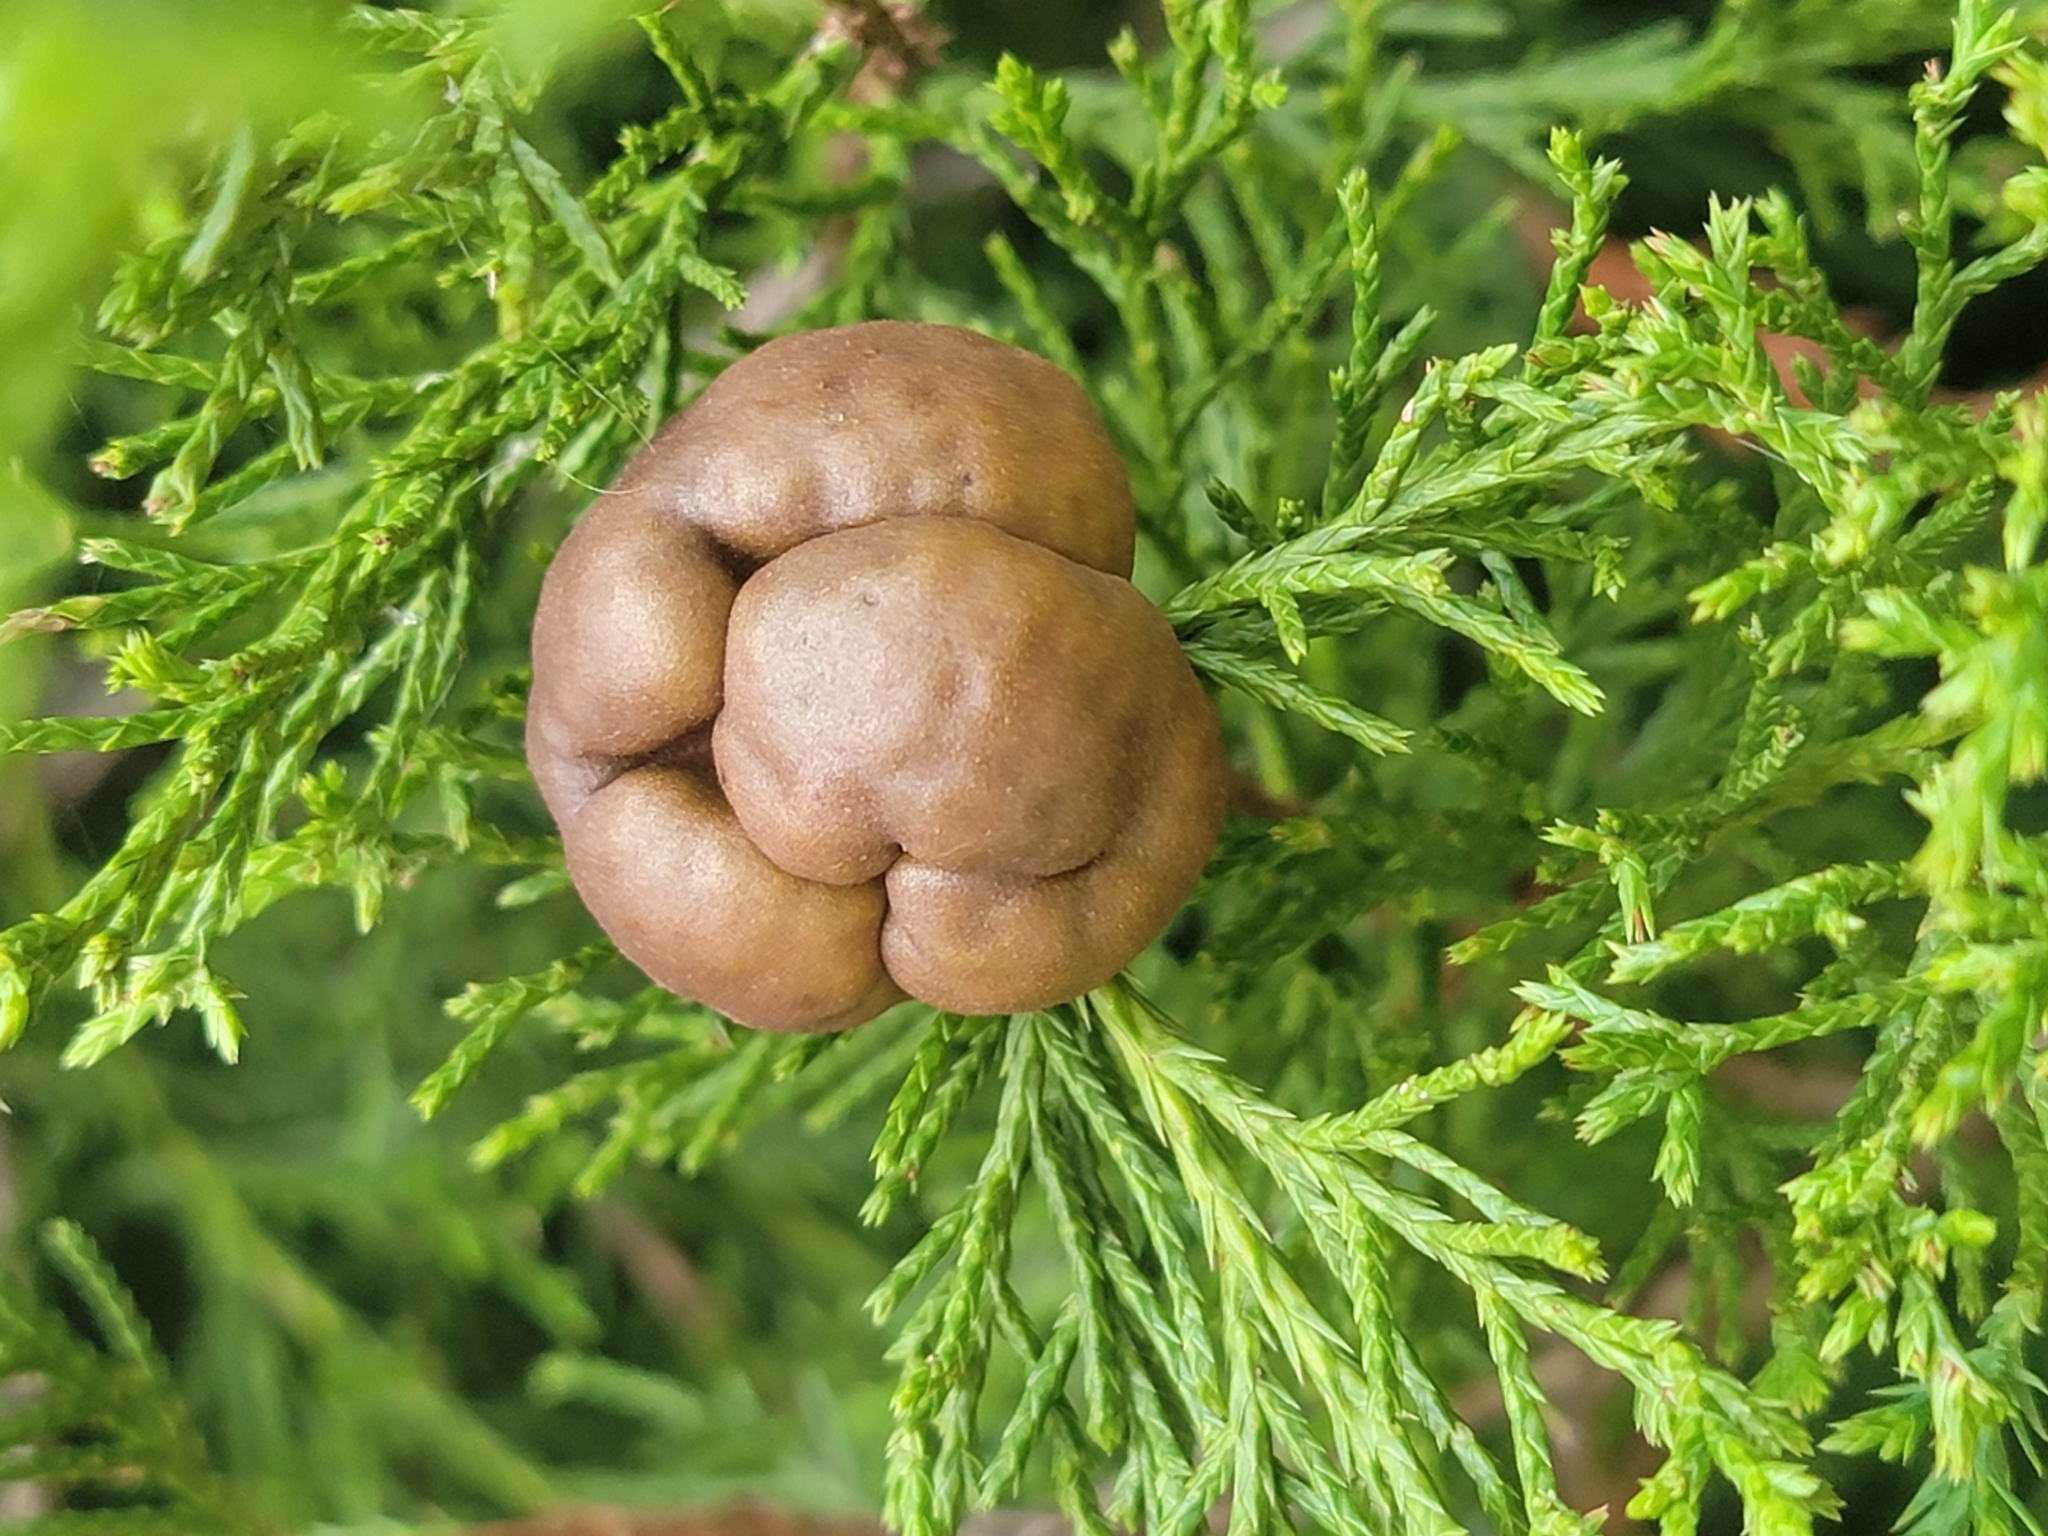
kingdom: Fungi
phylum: Basidiomycota
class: Pucciniomycetes
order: Pucciniales
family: Gymnosporangiaceae
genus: Gymnosporangium
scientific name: Gymnosporangium juniperi-virginianae
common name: Juniper-apple rust
